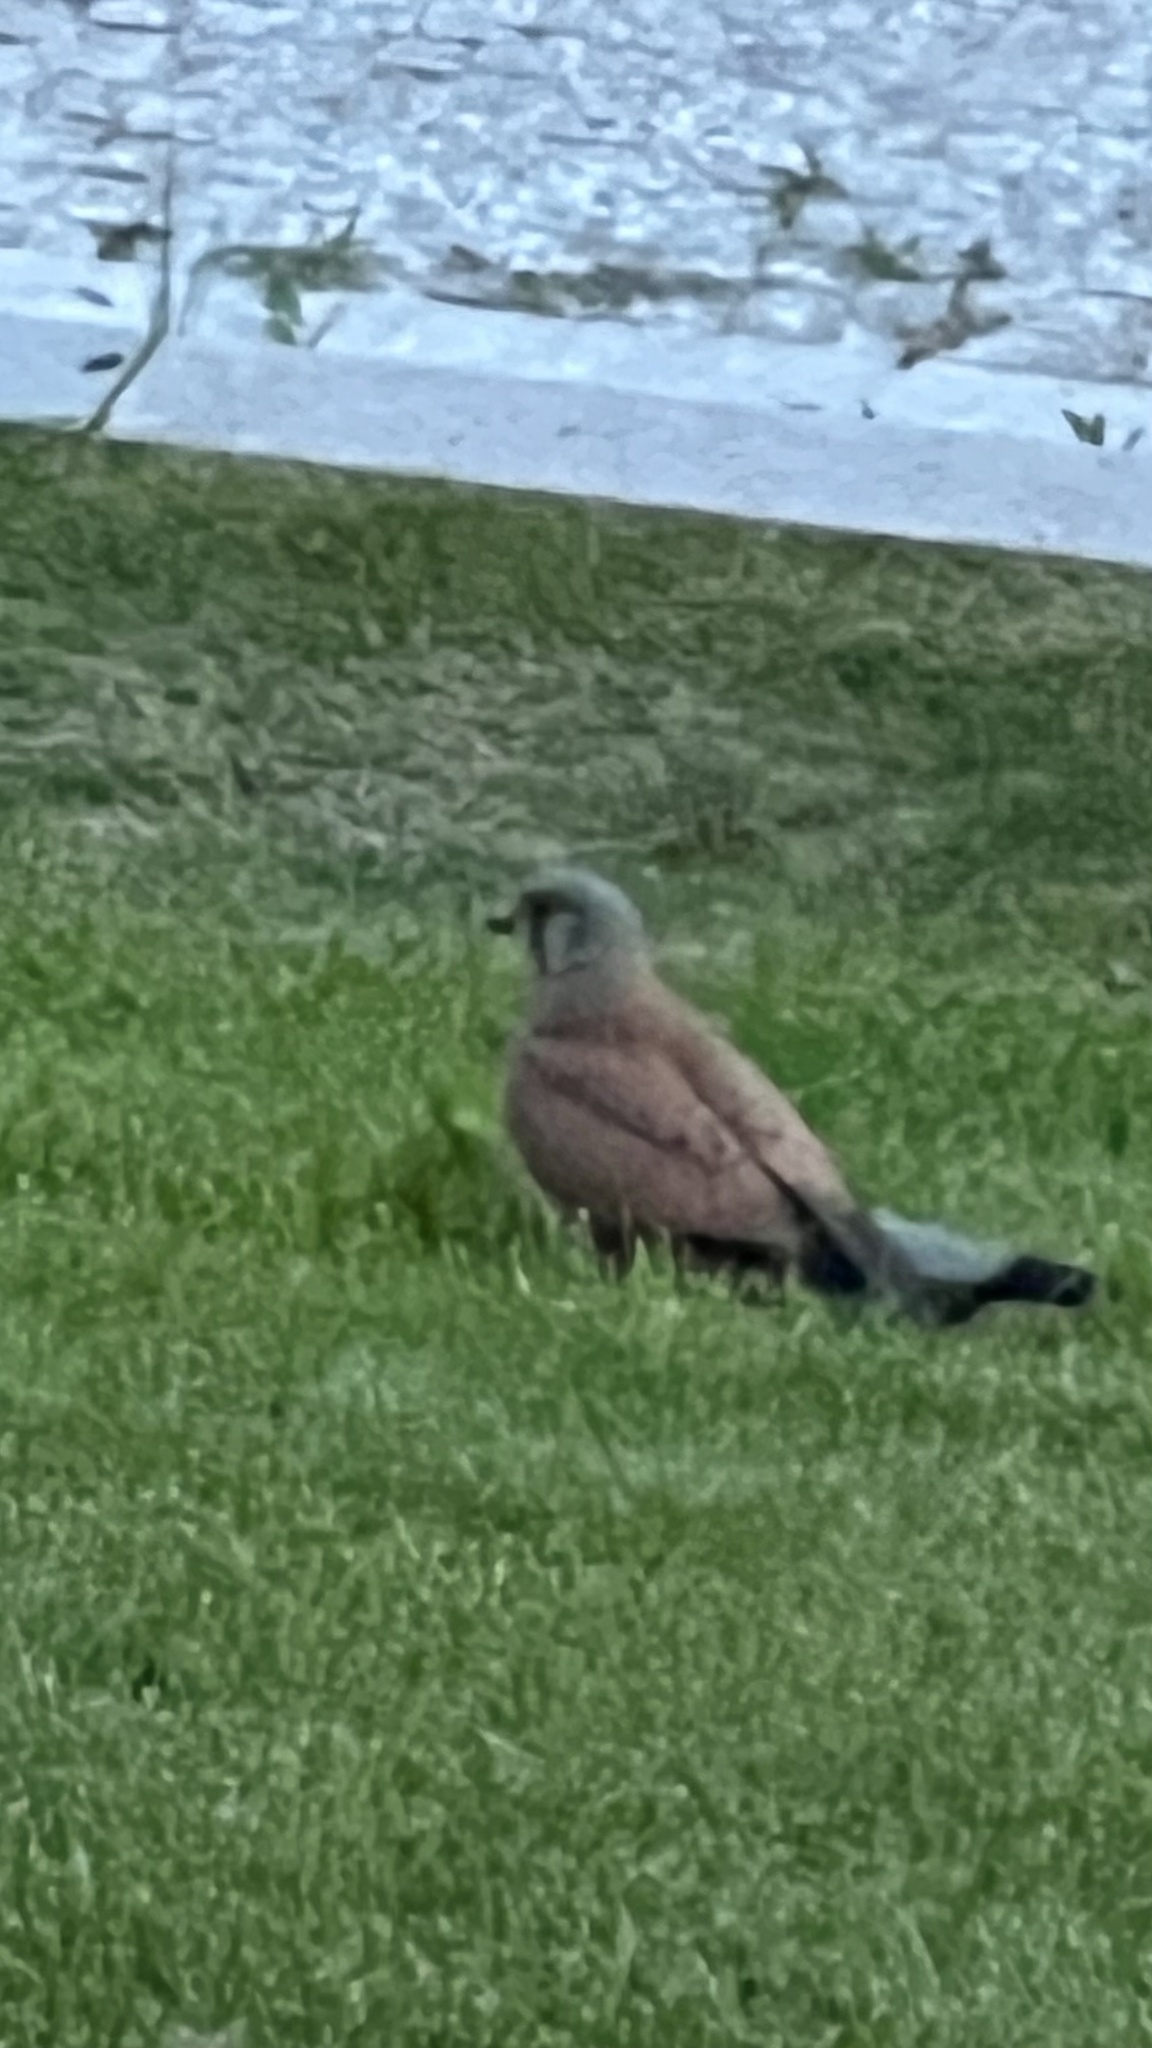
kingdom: Animalia
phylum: Chordata
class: Aves
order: Falconiformes
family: Falconidae
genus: Falco
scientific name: Falco tinnunculus
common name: Common kestrel
